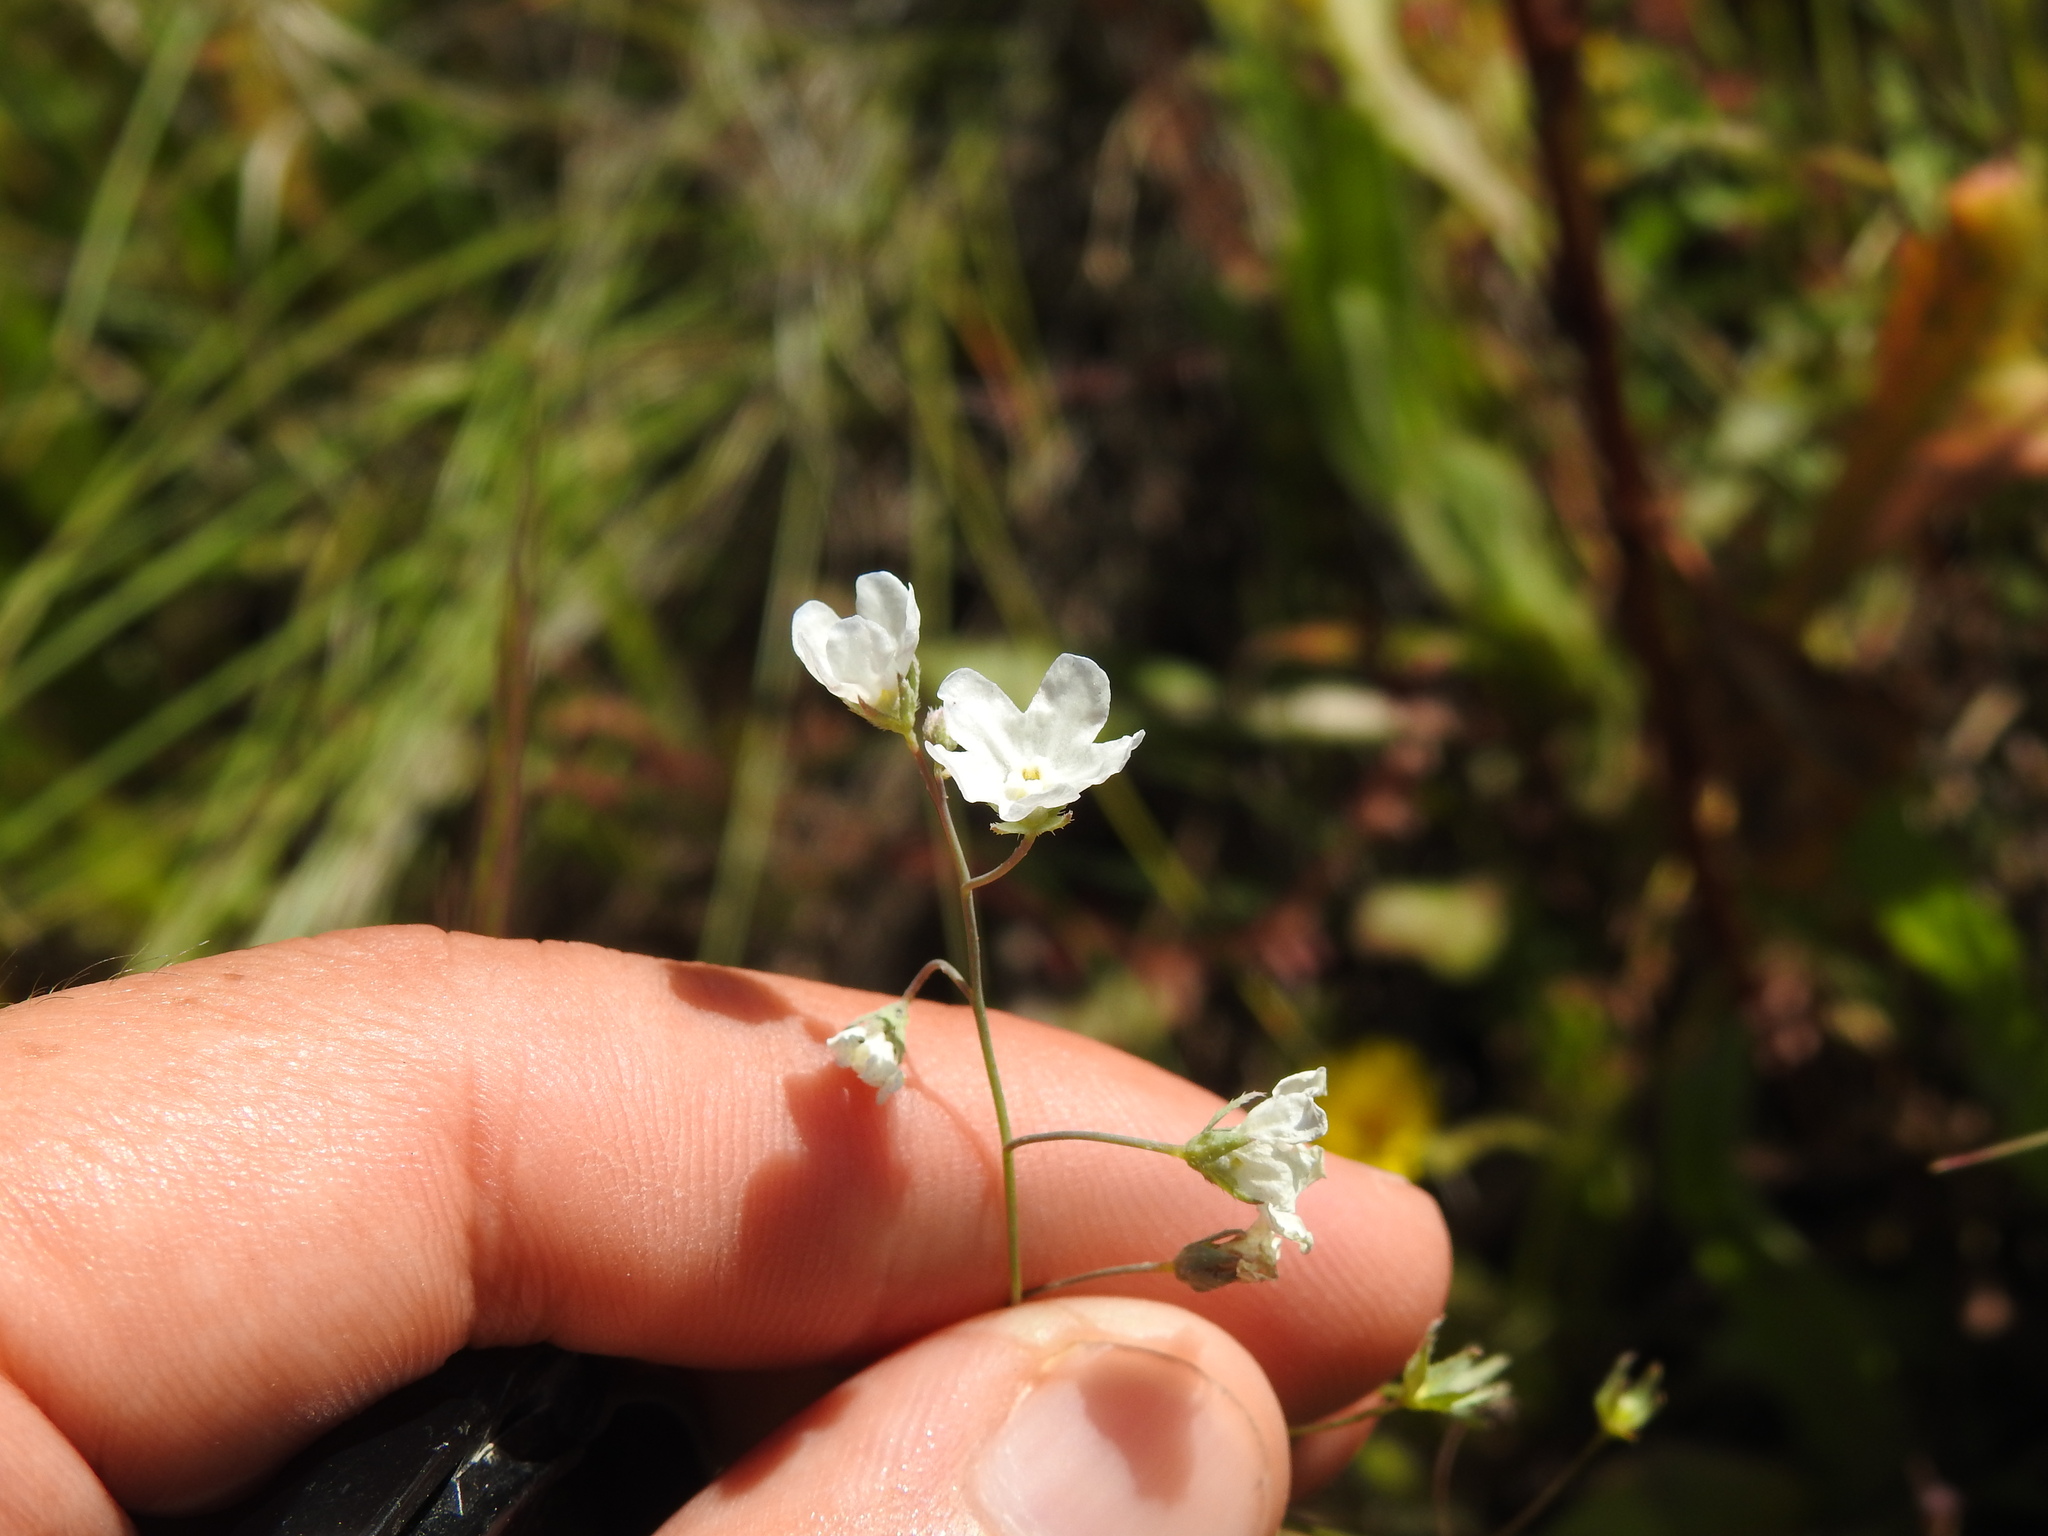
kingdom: Plantae
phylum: Tracheophyta
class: Magnoliopsida
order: Boraginales
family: Boraginaceae
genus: Iberodes
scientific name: Iberodes linifolia
